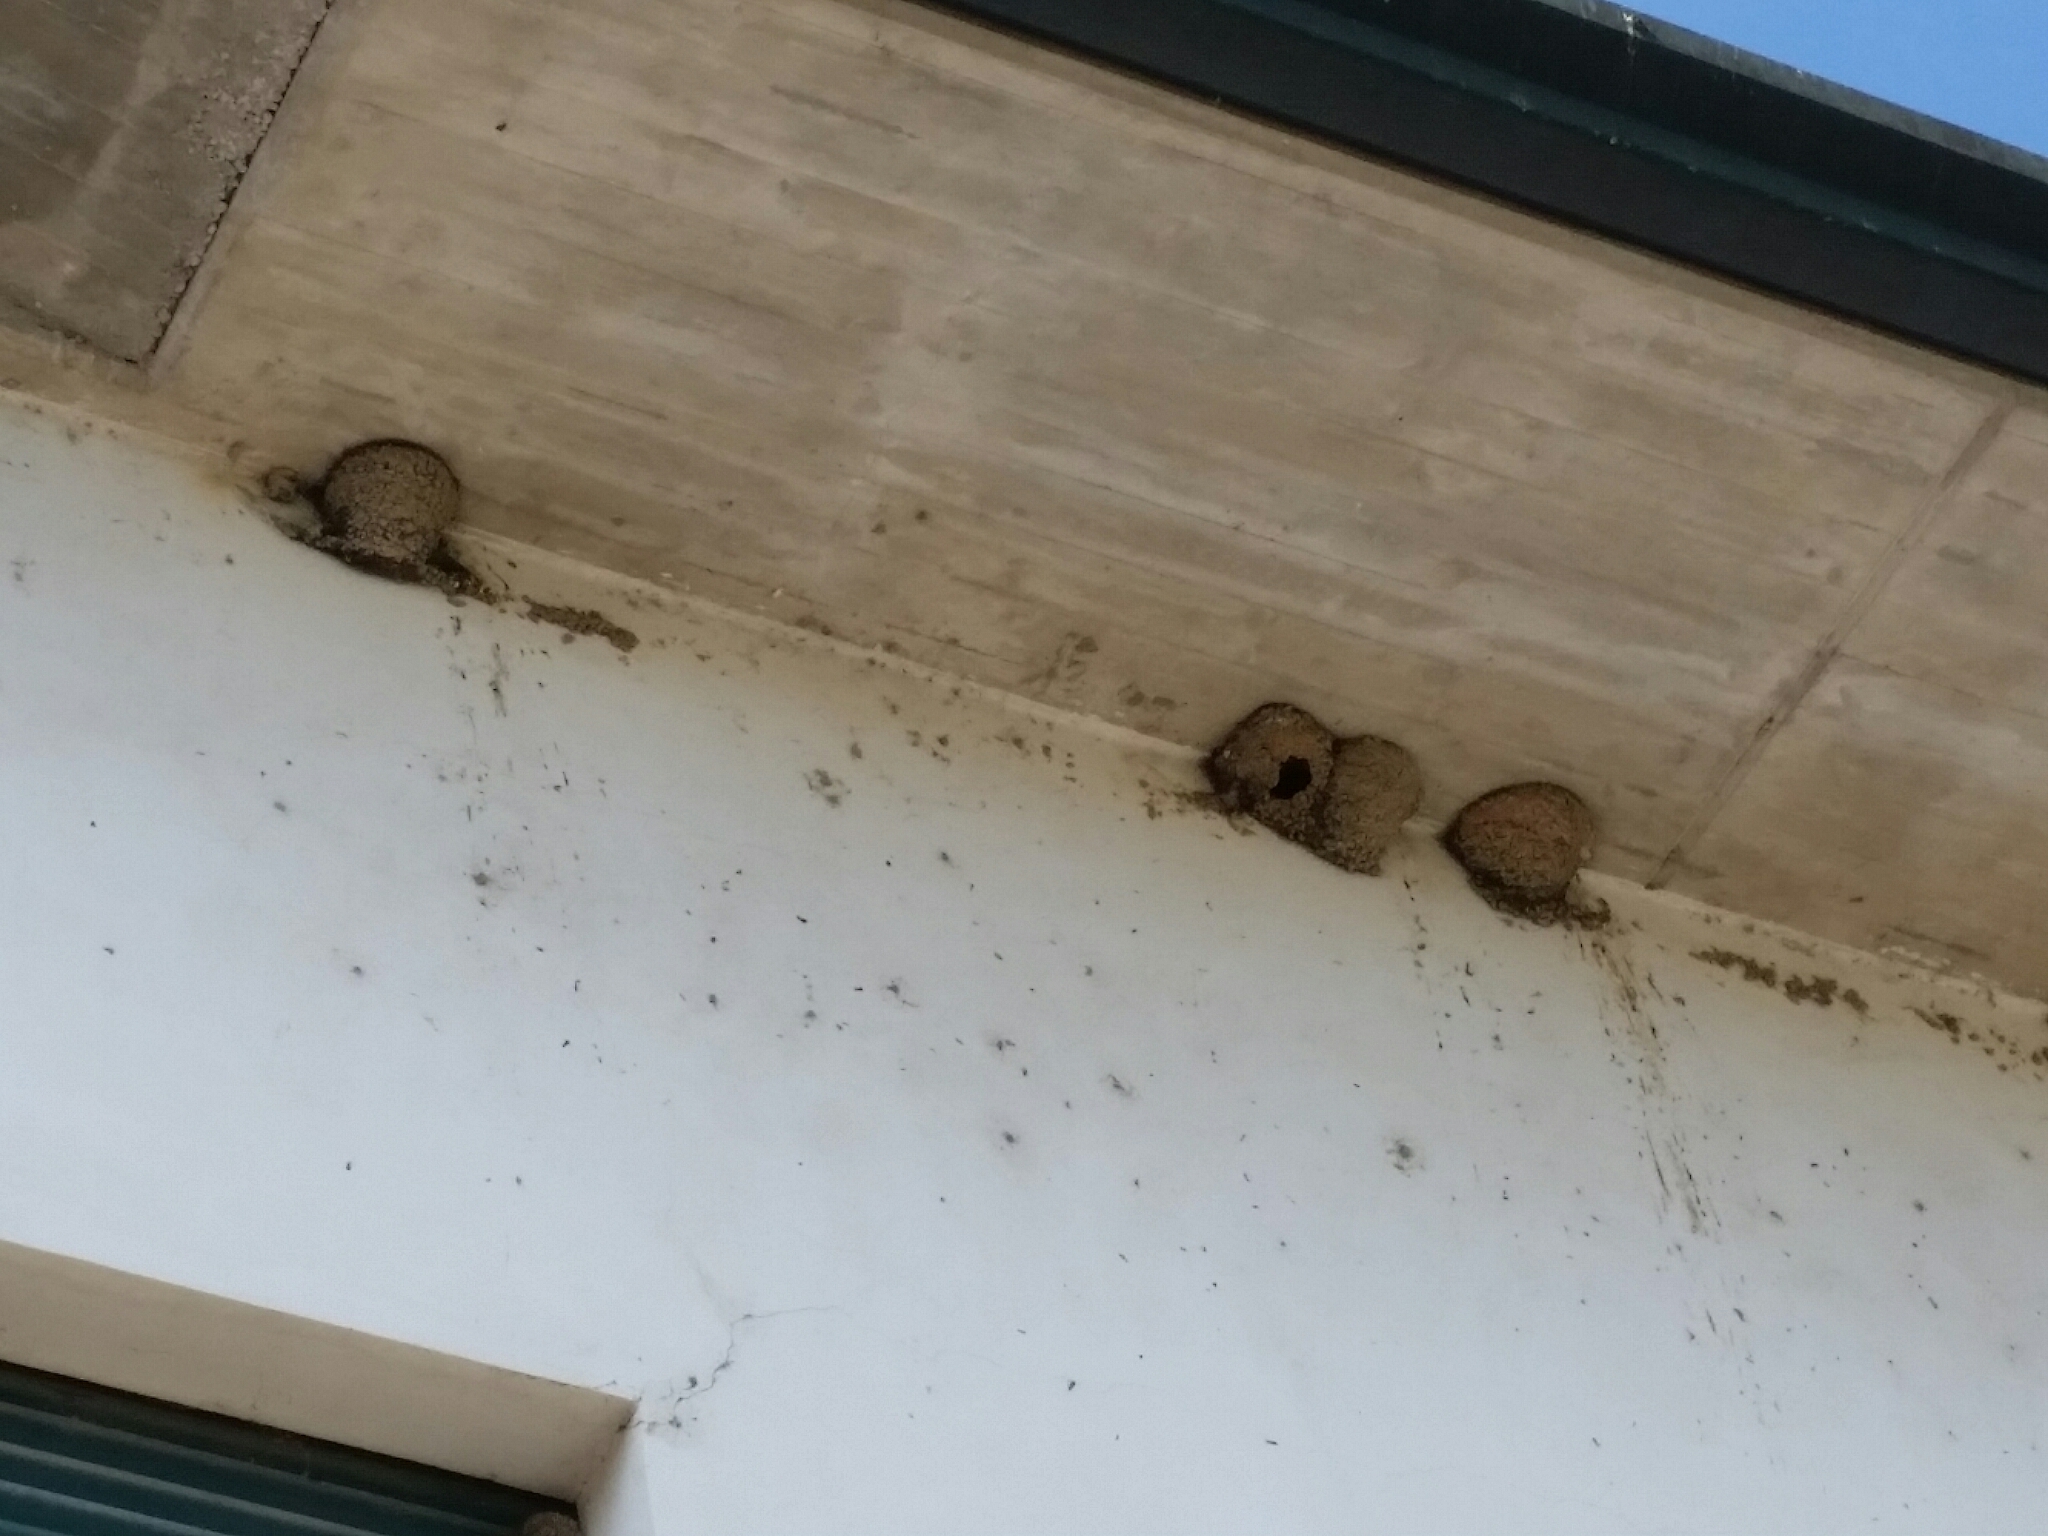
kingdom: Animalia
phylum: Chordata
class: Aves
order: Passeriformes
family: Hirundinidae
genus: Delichon
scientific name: Delichon urbicum
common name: Common house martin
